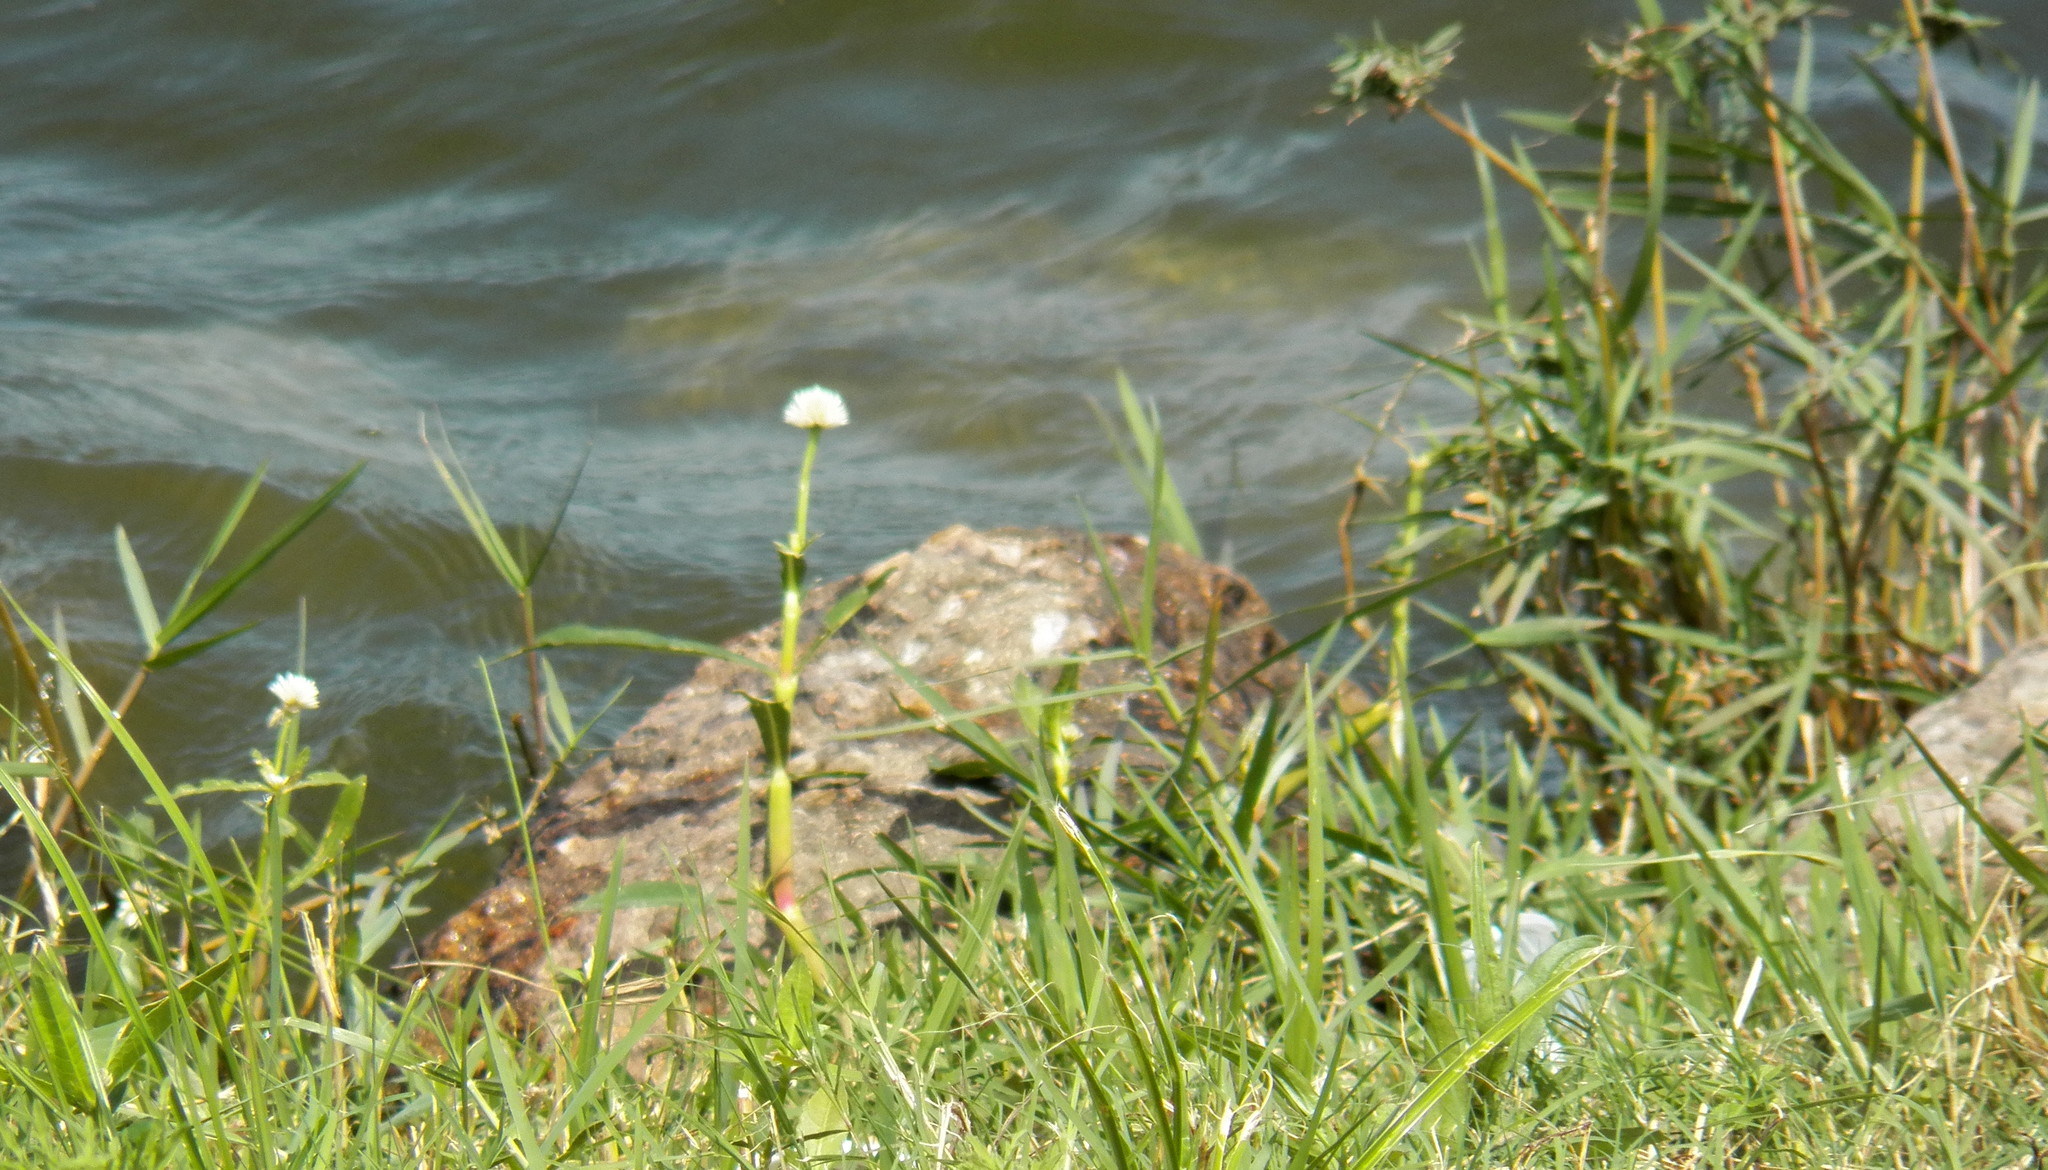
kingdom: Plantae
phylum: Tracheophyta
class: Magnoliopsida
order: Caryophyllales
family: Amaranthaceae
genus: Alternanthera
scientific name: Alternanthera philoxeroides
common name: Alligatorweed
